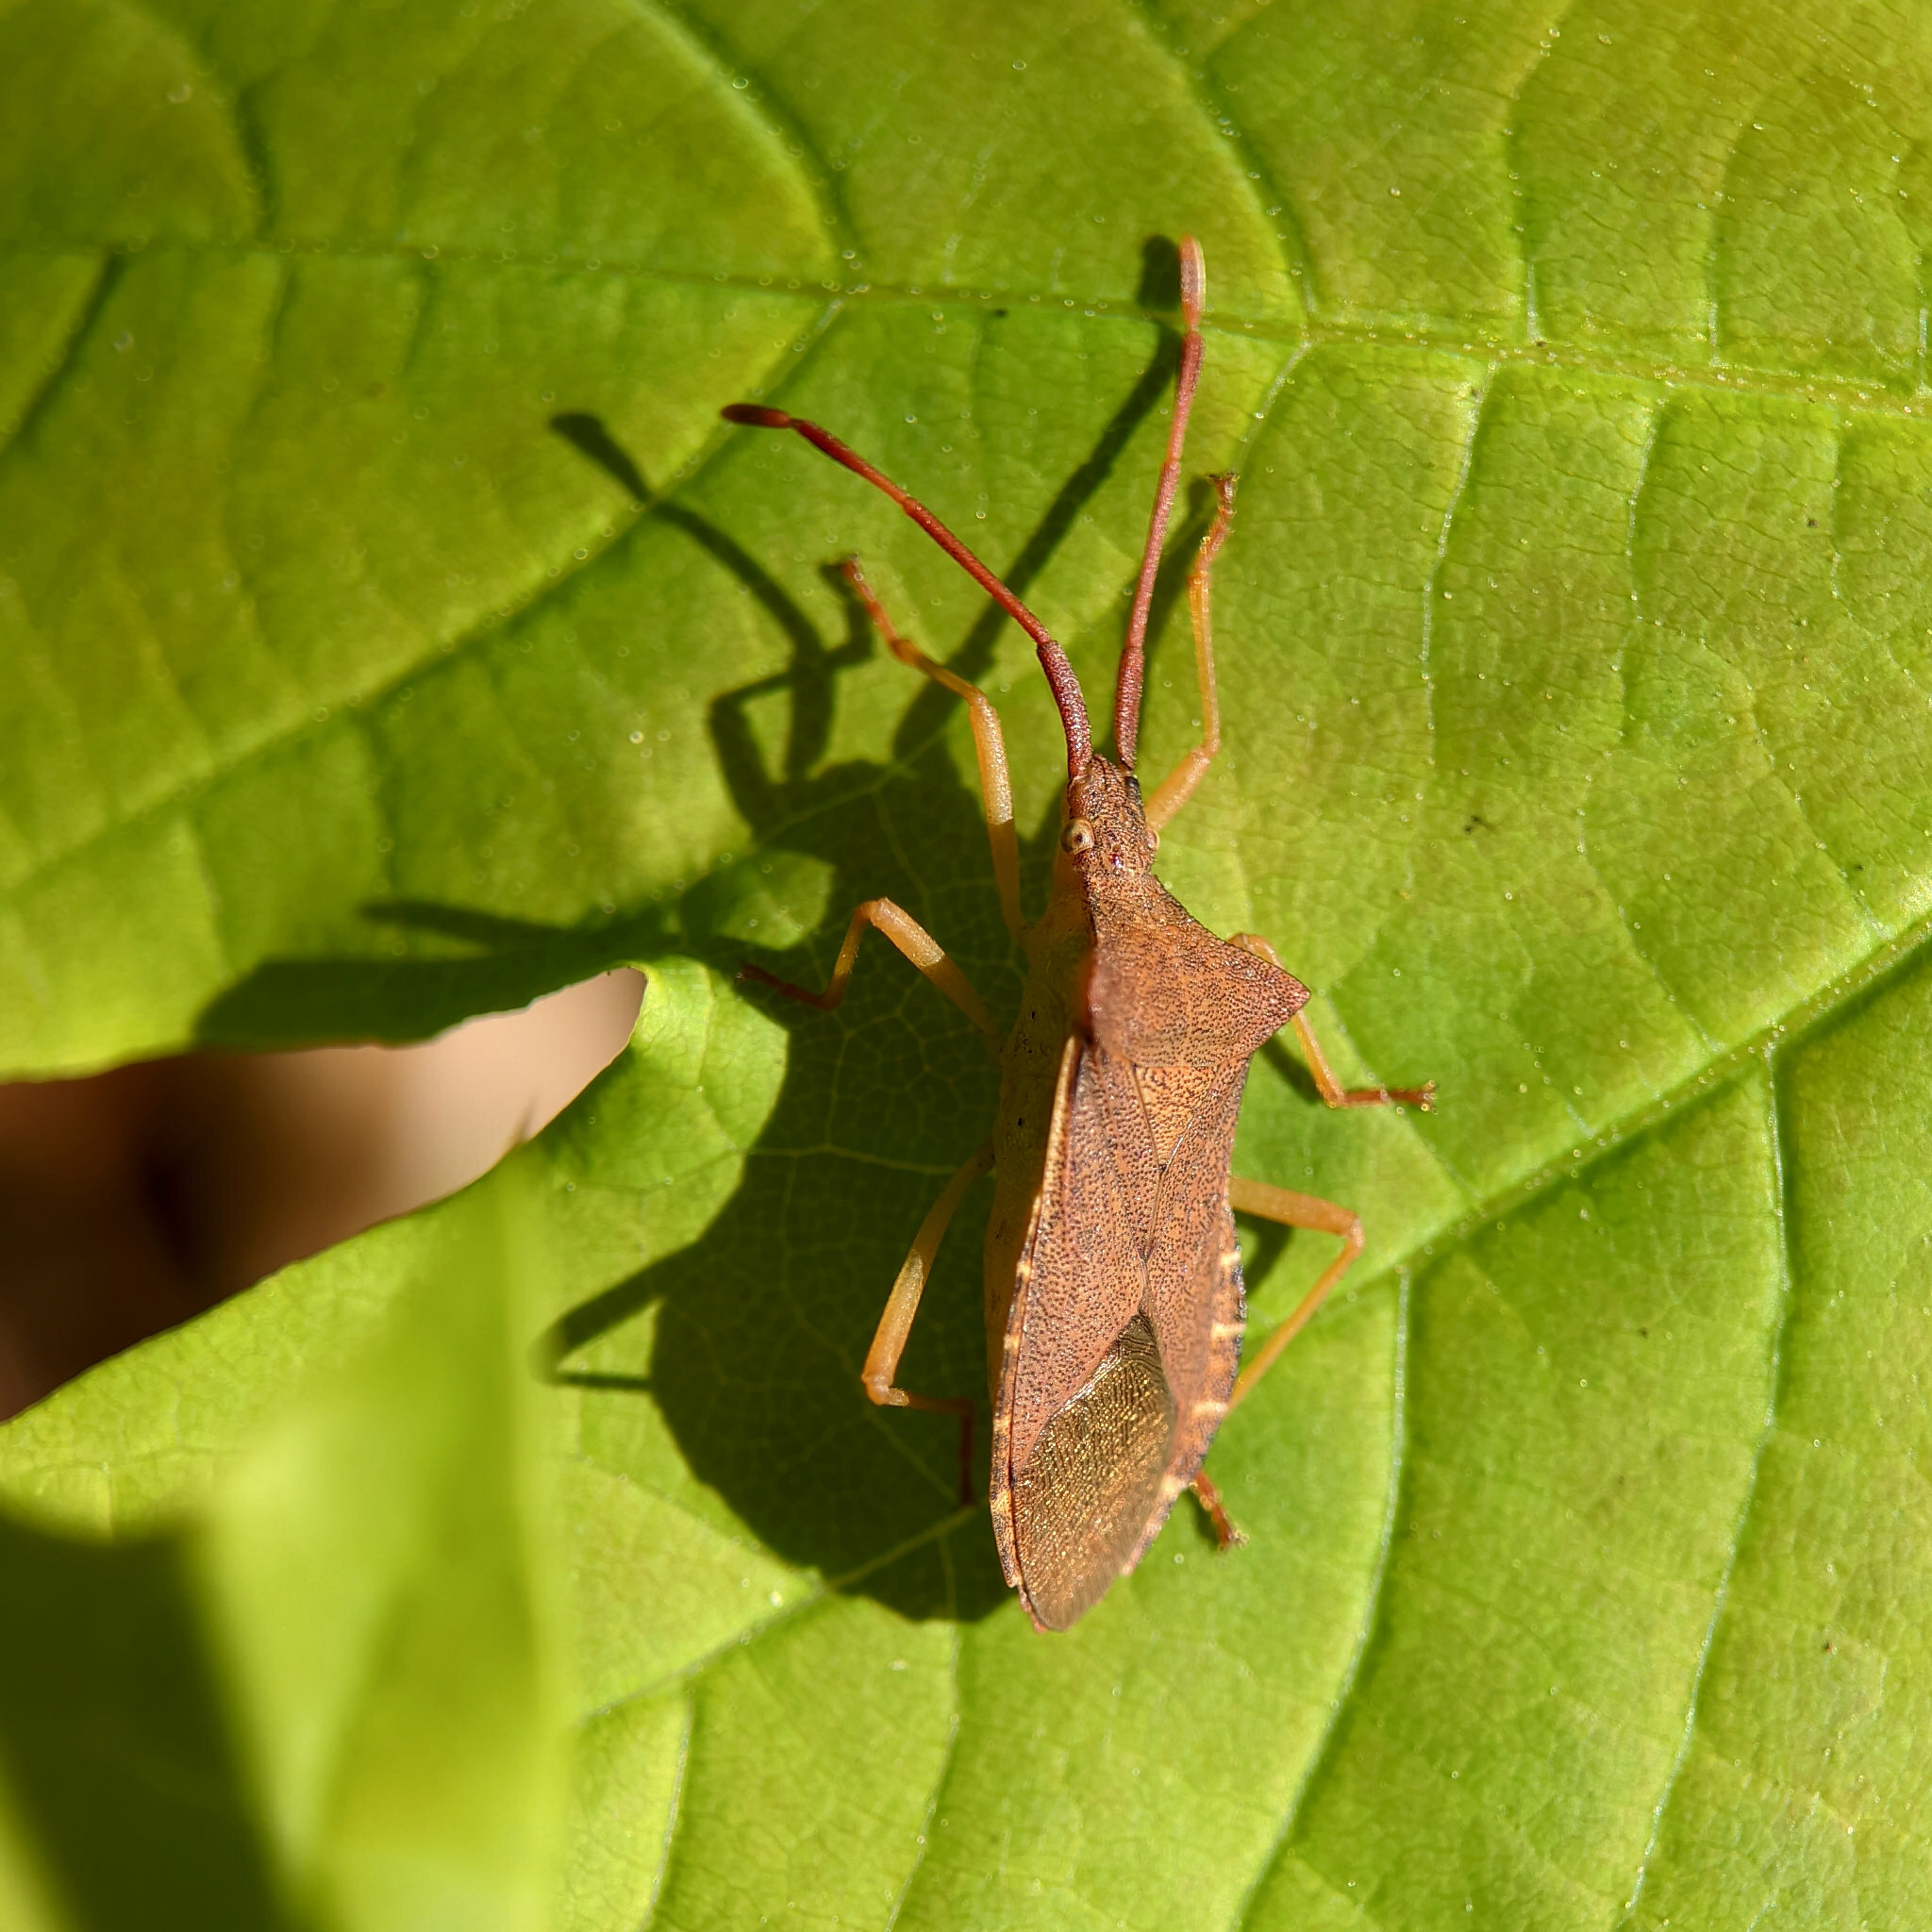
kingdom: Animalia
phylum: Arthropoda
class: Insecta
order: Hemiptera
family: Coreidae
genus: Gonocerus
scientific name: Gonocerus acuteangulatus
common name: Box bug
